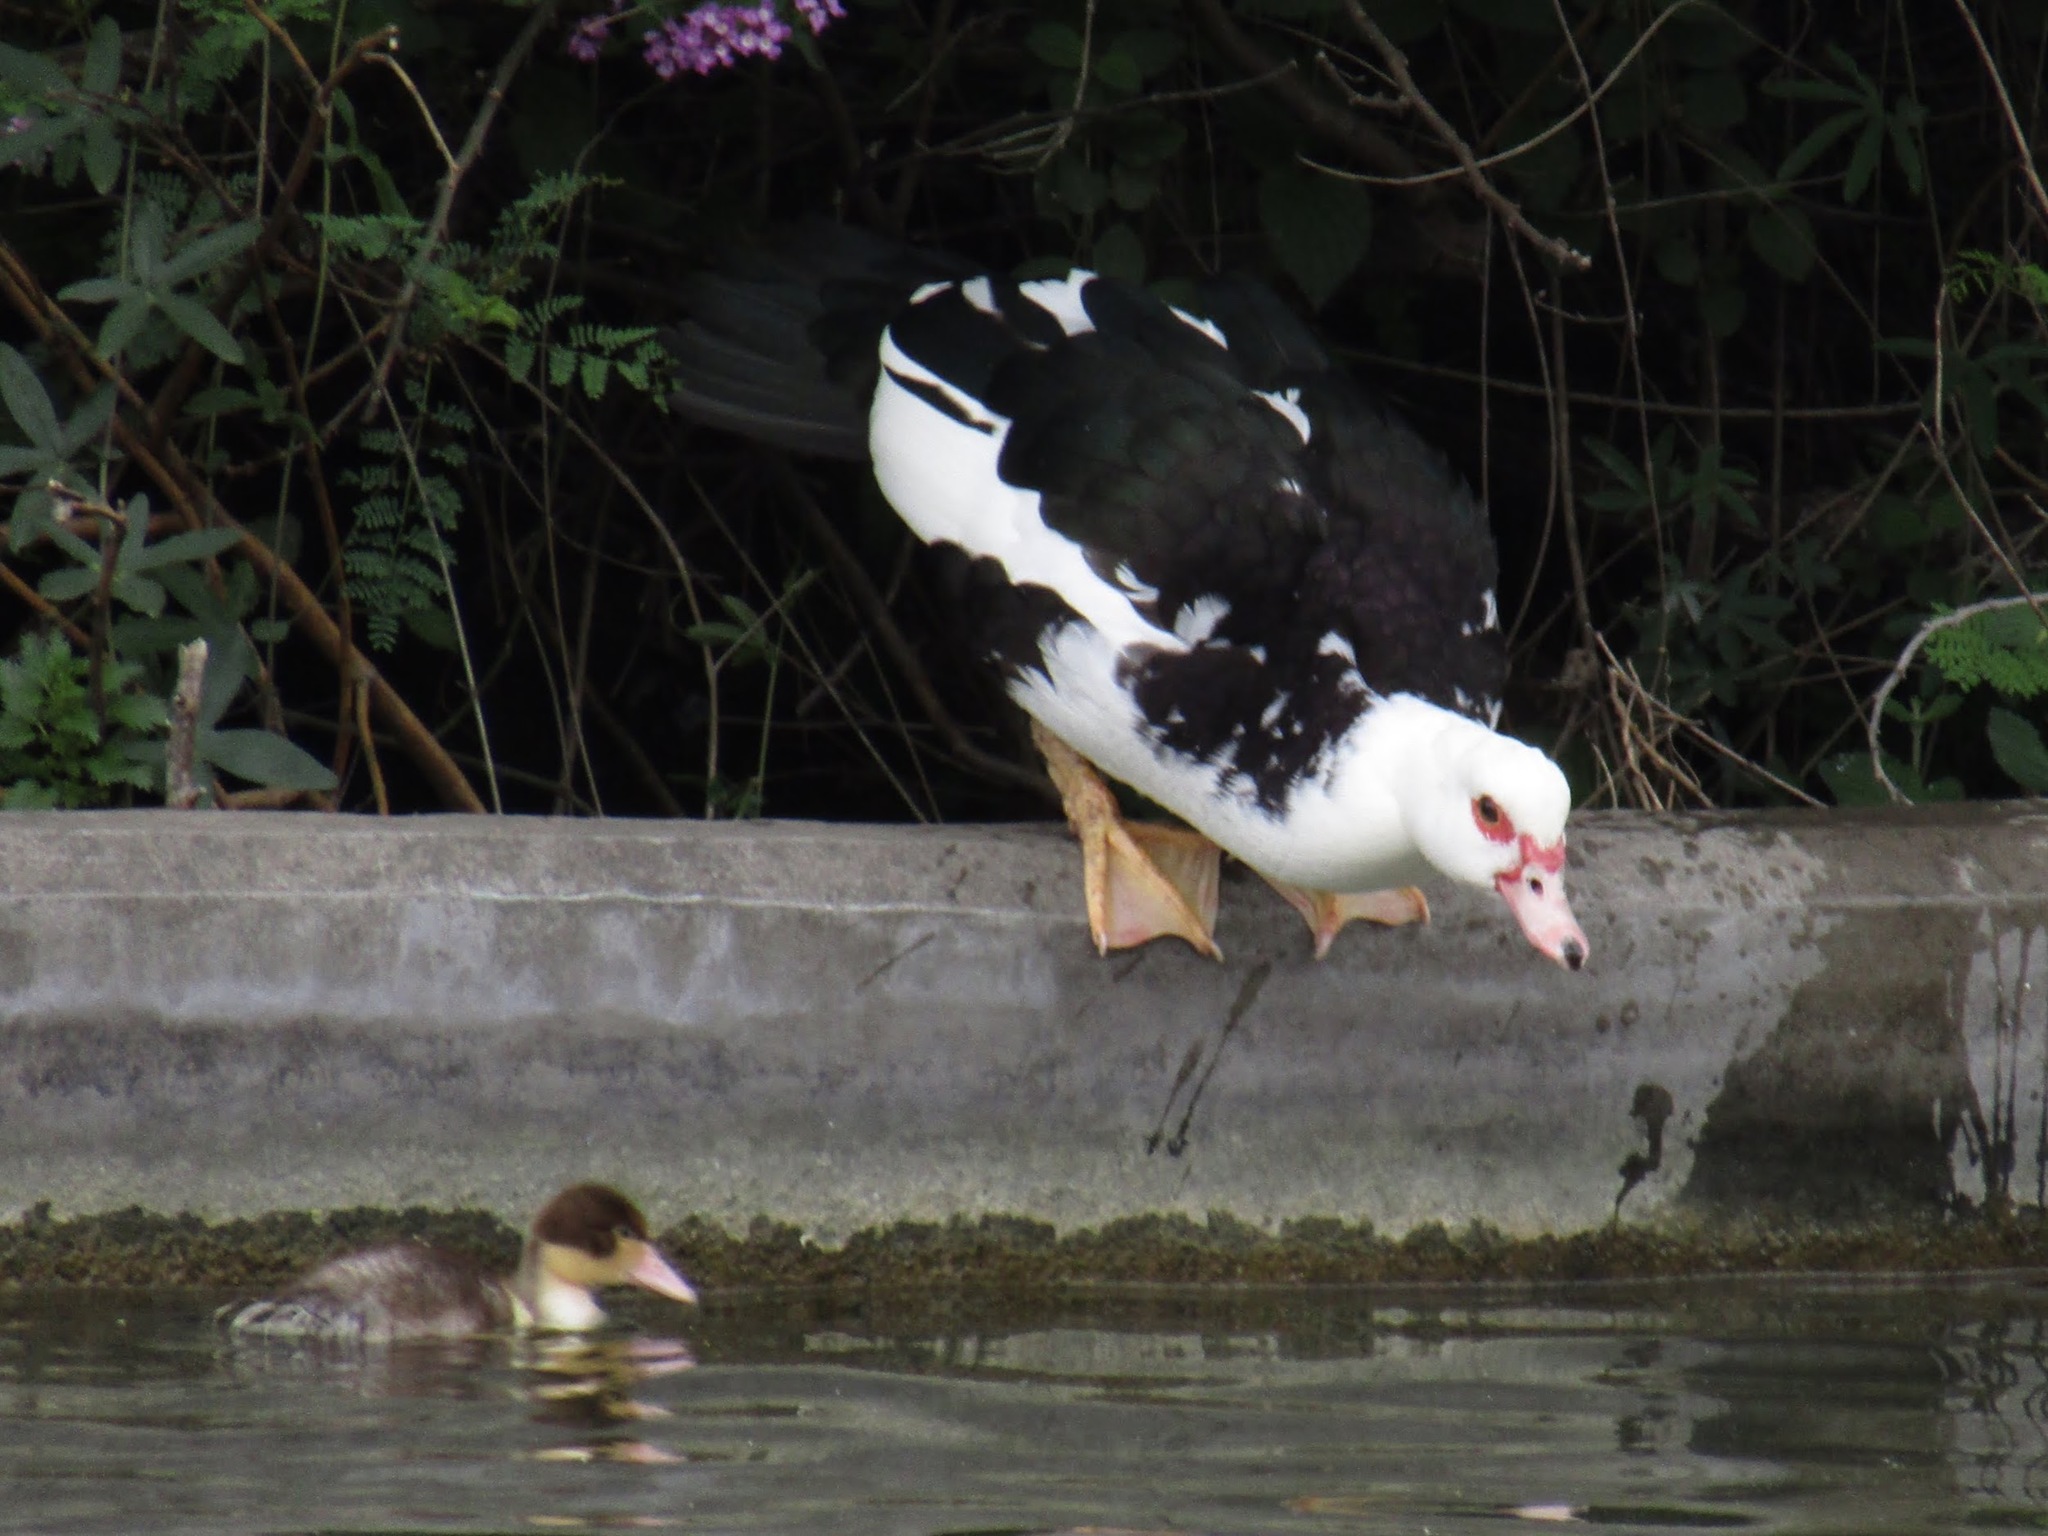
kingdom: Animalia
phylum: Chordata
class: Aves
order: Anseriformes
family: Anatidae
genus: Cairina
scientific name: Cairina moschata
